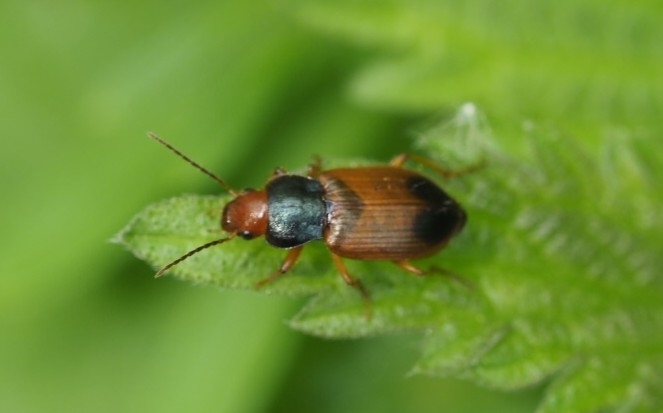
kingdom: Animalia
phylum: Arthropoda
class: Insecta
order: Coleoptera
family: Carabidae
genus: Diachromus
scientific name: Diachromus germanus
